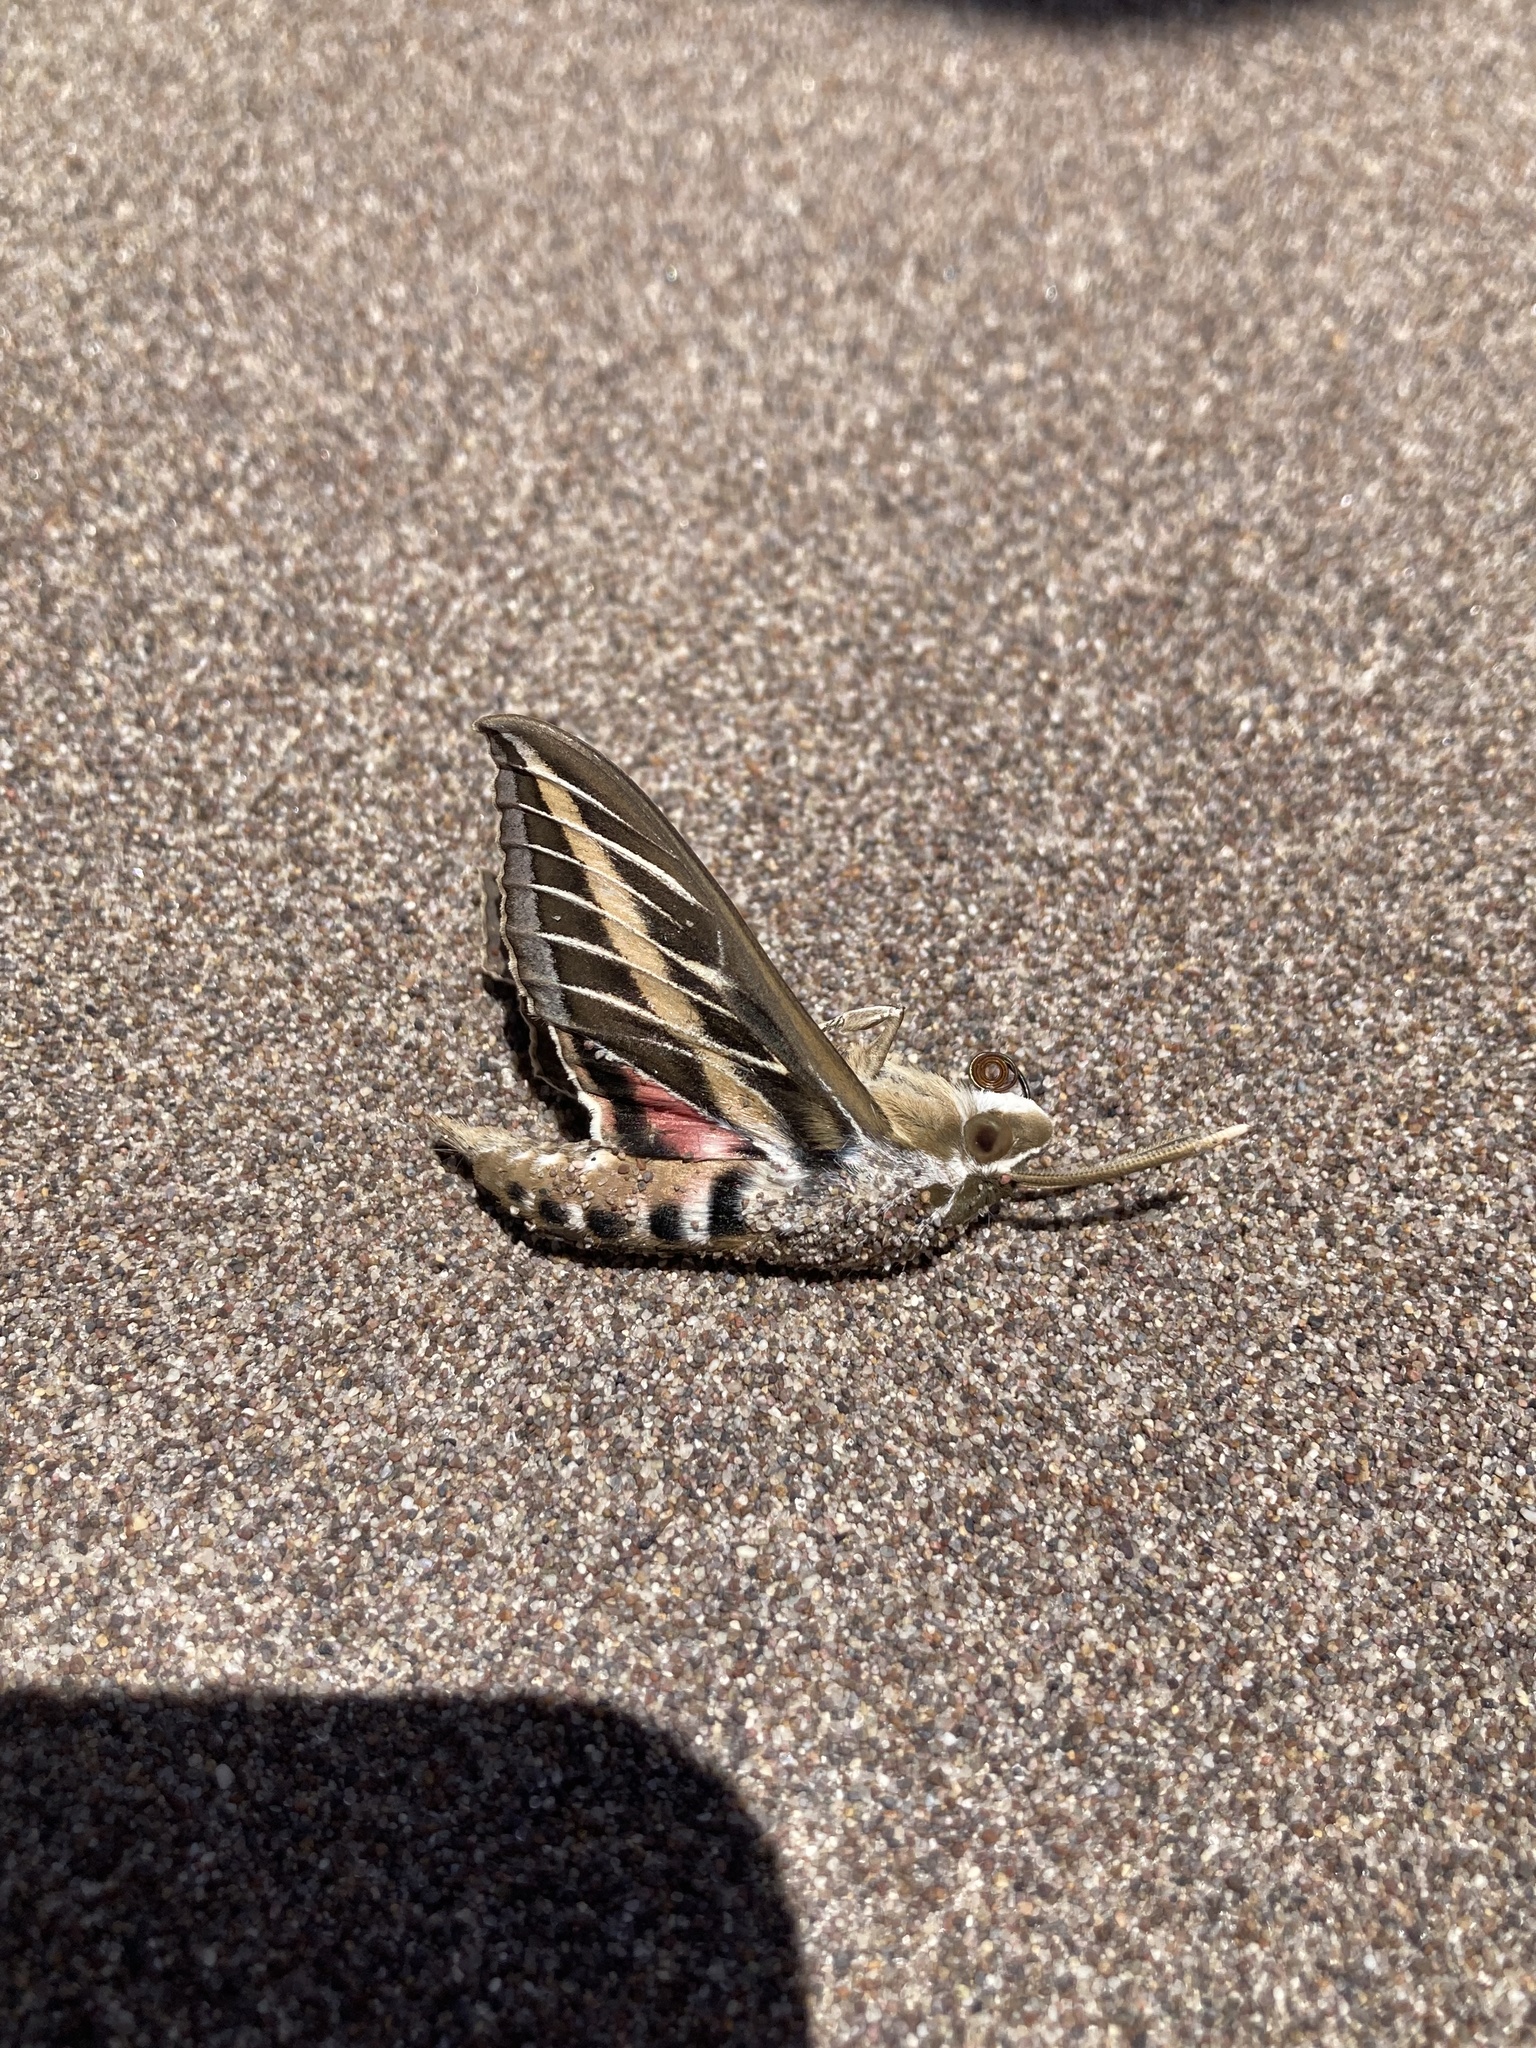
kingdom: Animalia
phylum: Arthropoda
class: Insecta
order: Lepidoptera
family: Sphingidae
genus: Hyles
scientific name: Hyles lineata
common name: White-lined sphinx
